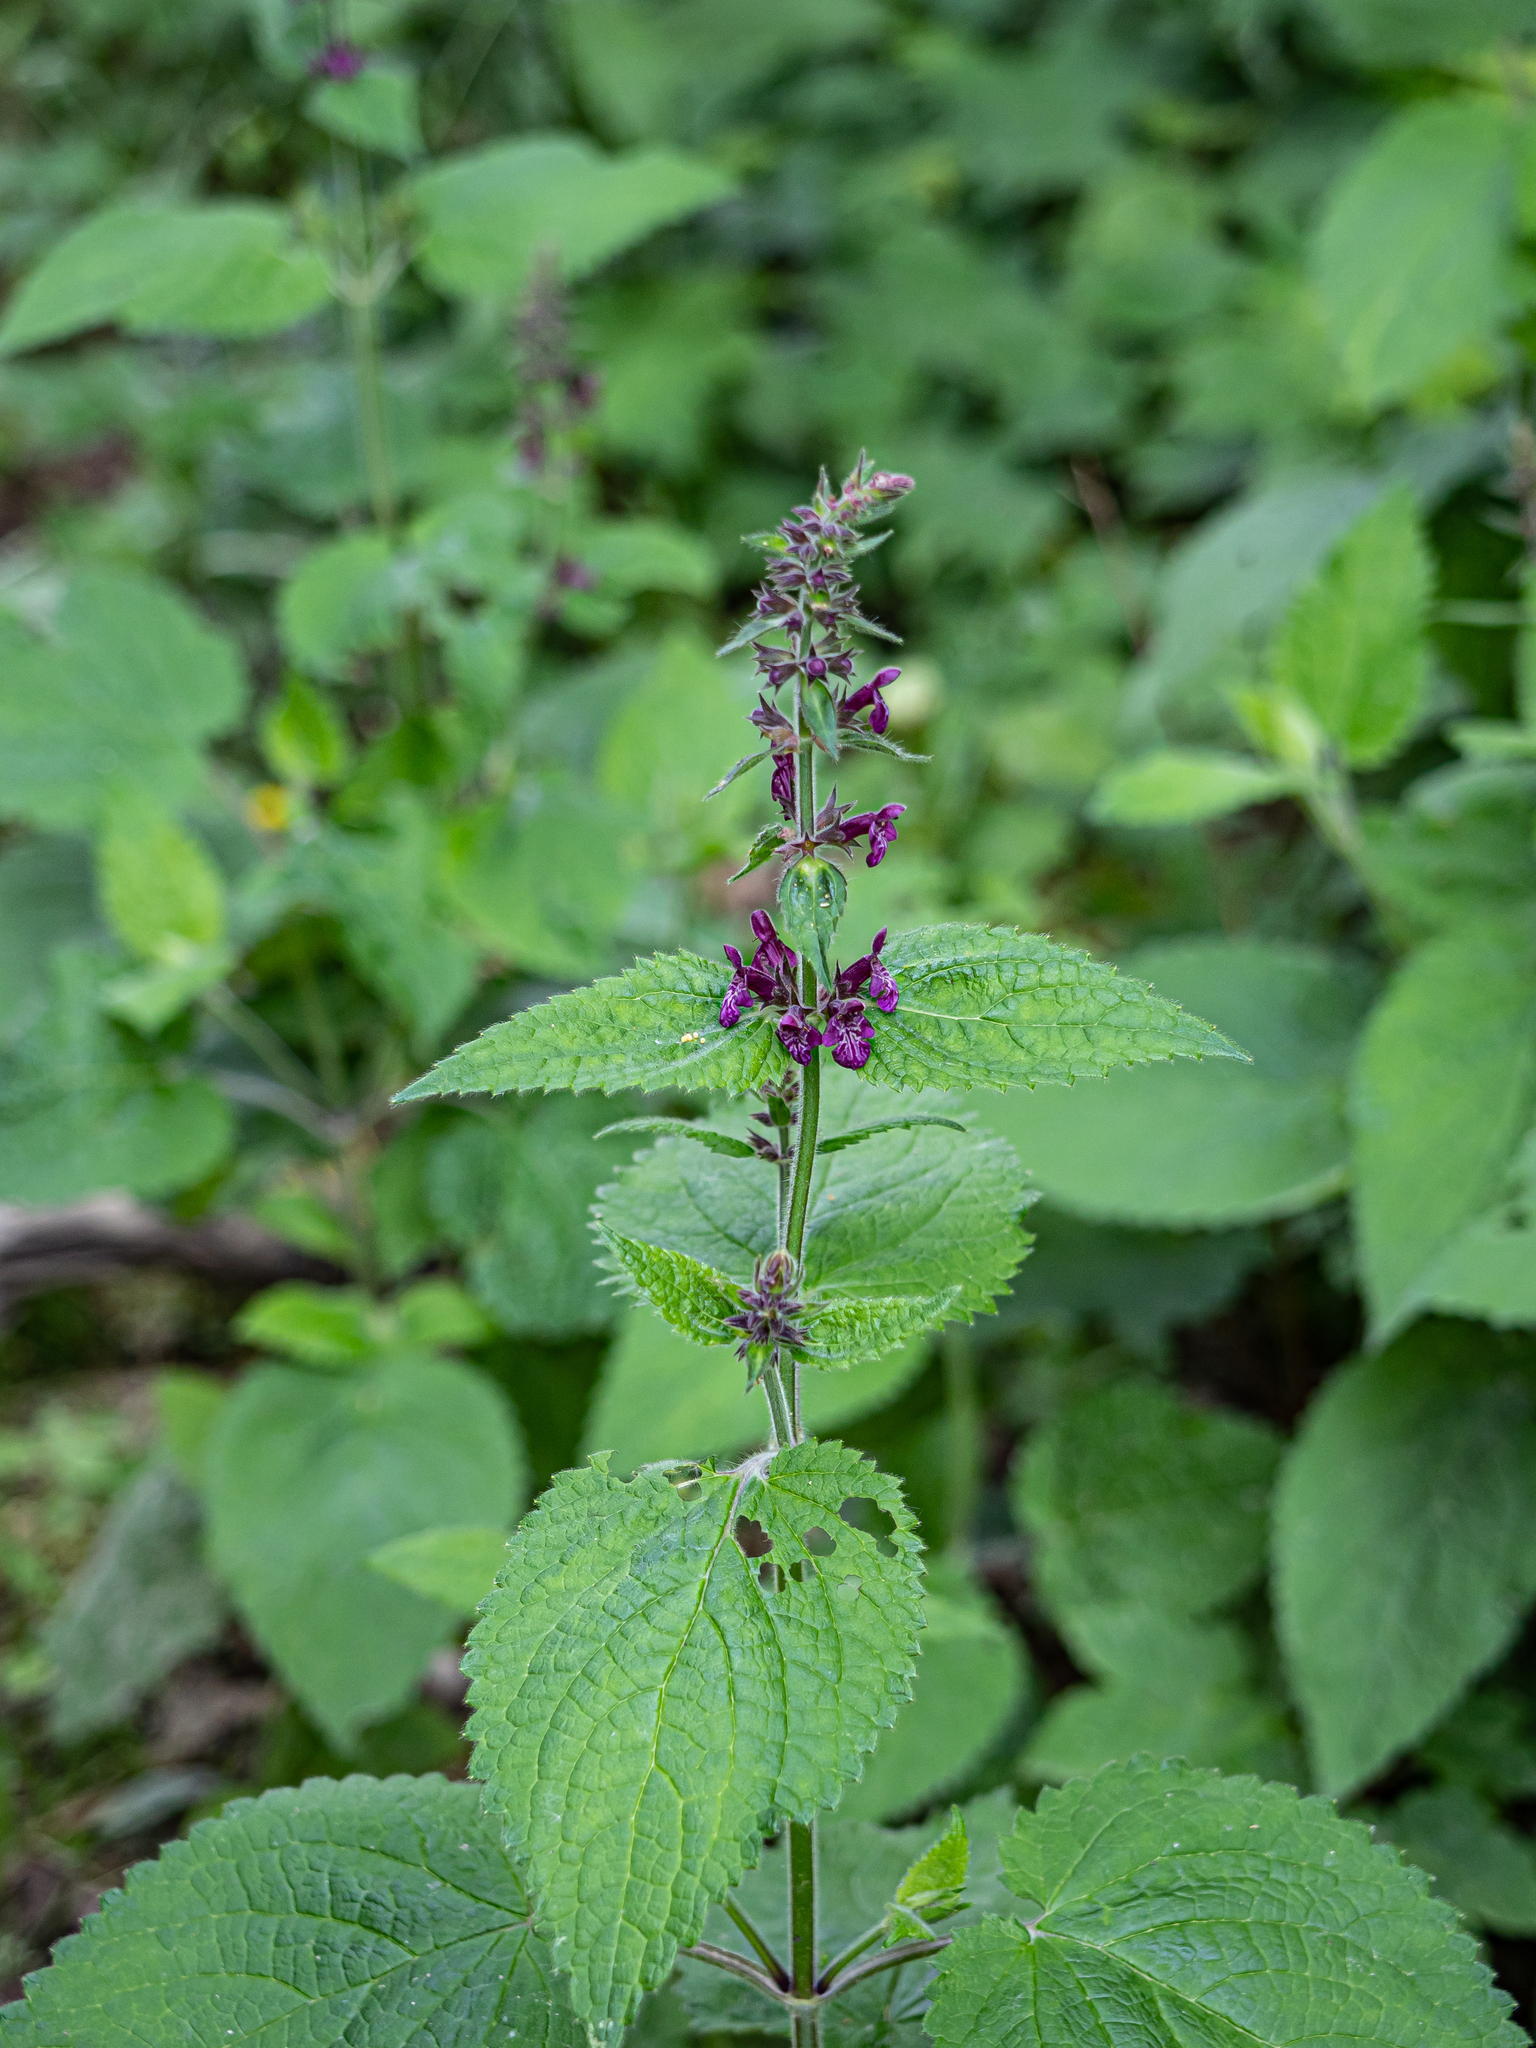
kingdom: Plantae
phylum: Tracheophyta
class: Magnoliopsida
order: Lamiales
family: Lamiaceae
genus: Stachys
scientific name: Stachys sylvatica
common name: Hedge woundwort
